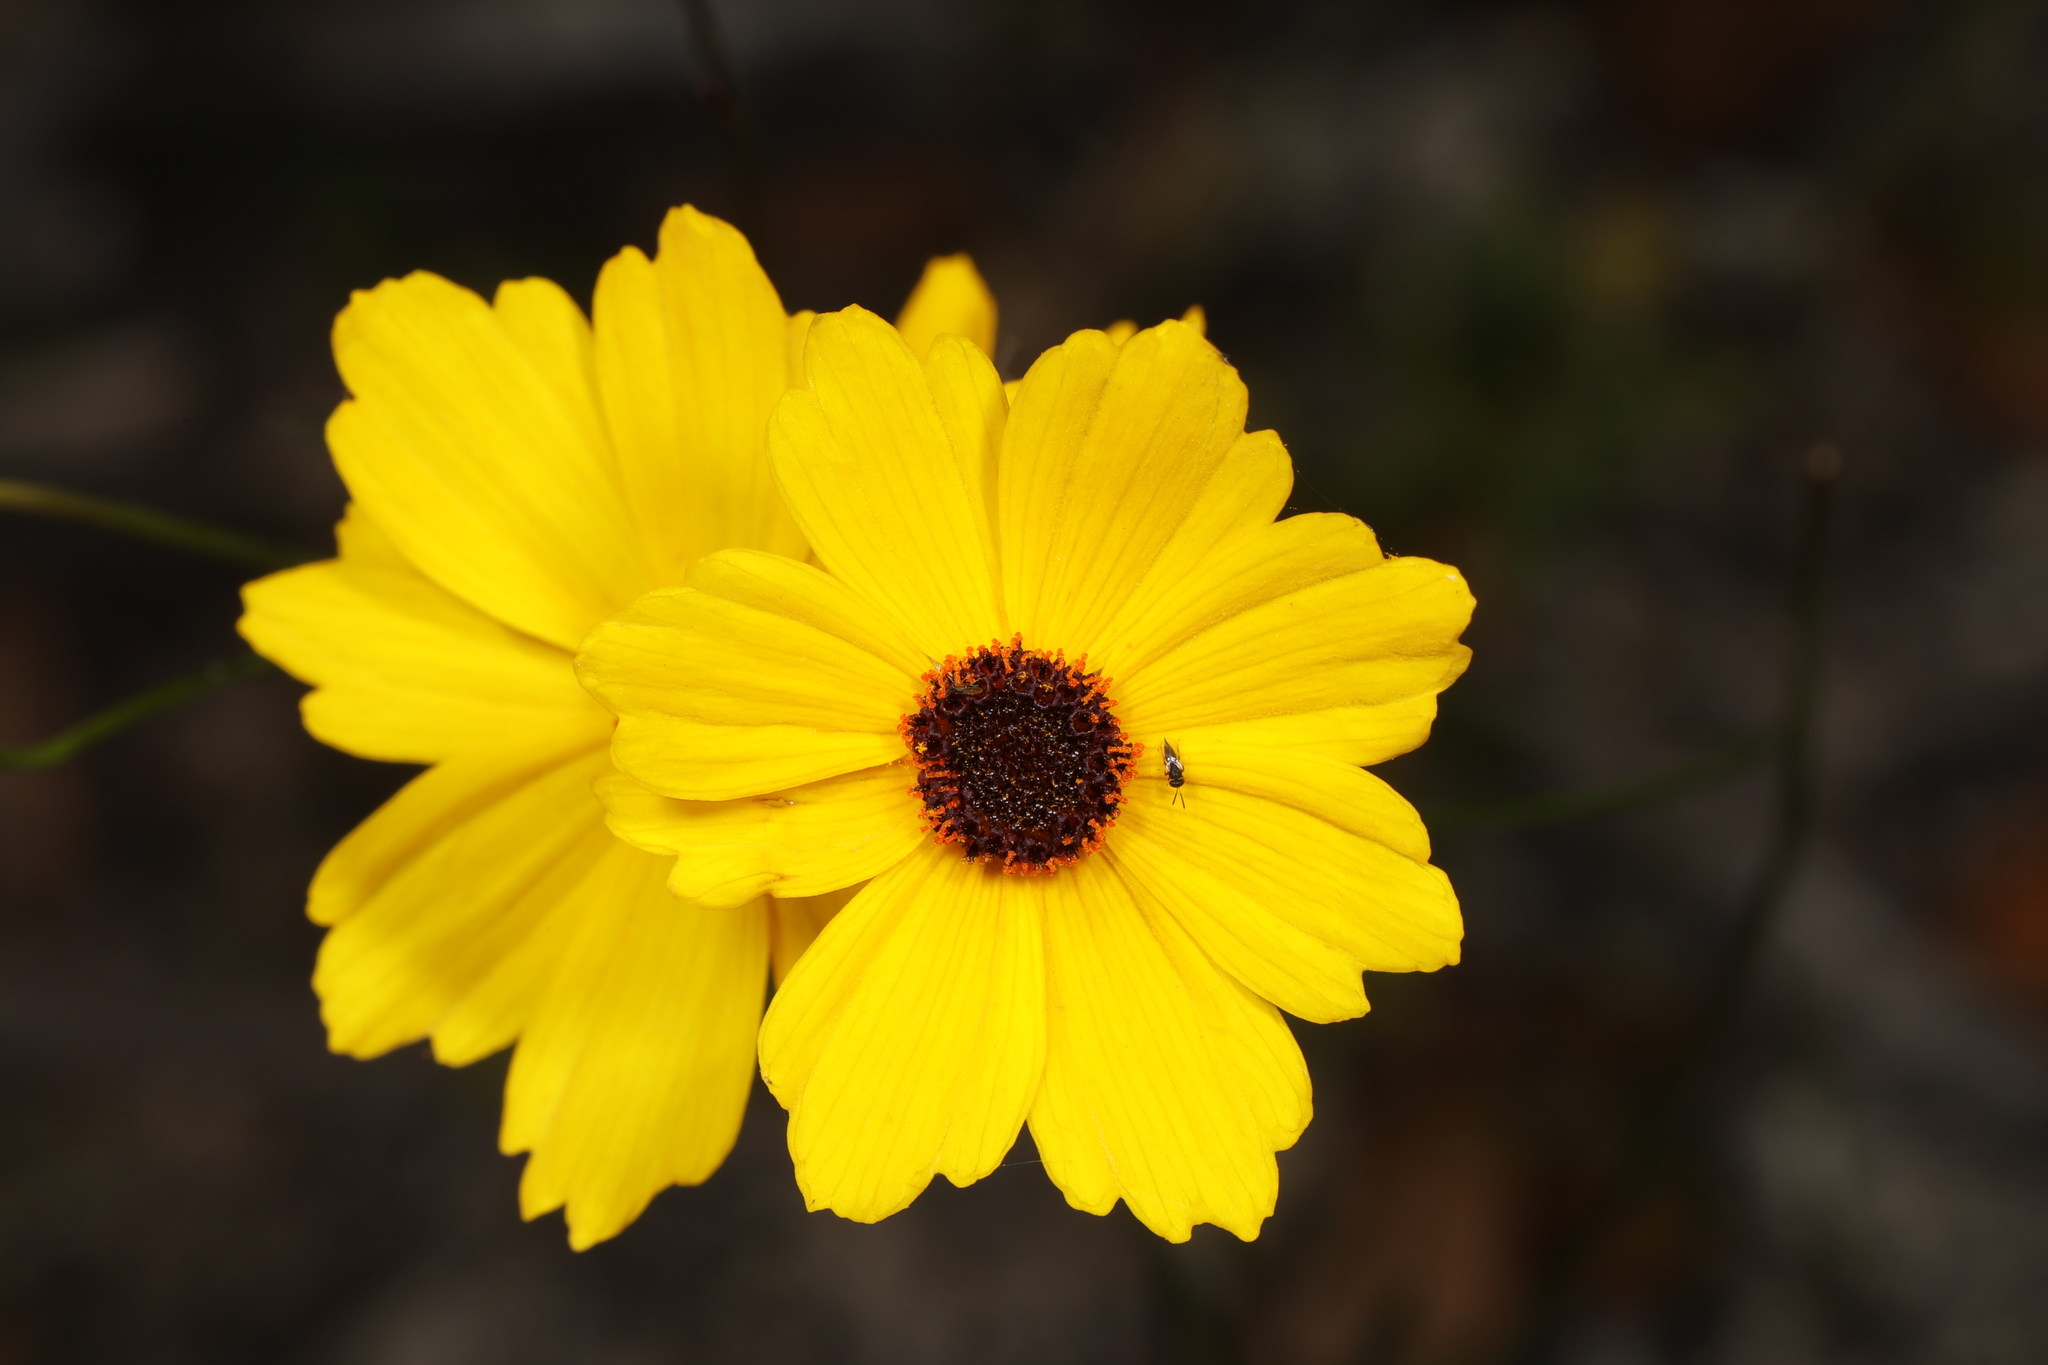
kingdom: Plantae
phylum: Tracheophyta
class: Magnoliopsida
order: Asterales
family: Asteraceae
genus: Coreopsis
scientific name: Coreopsis leavenworthii
